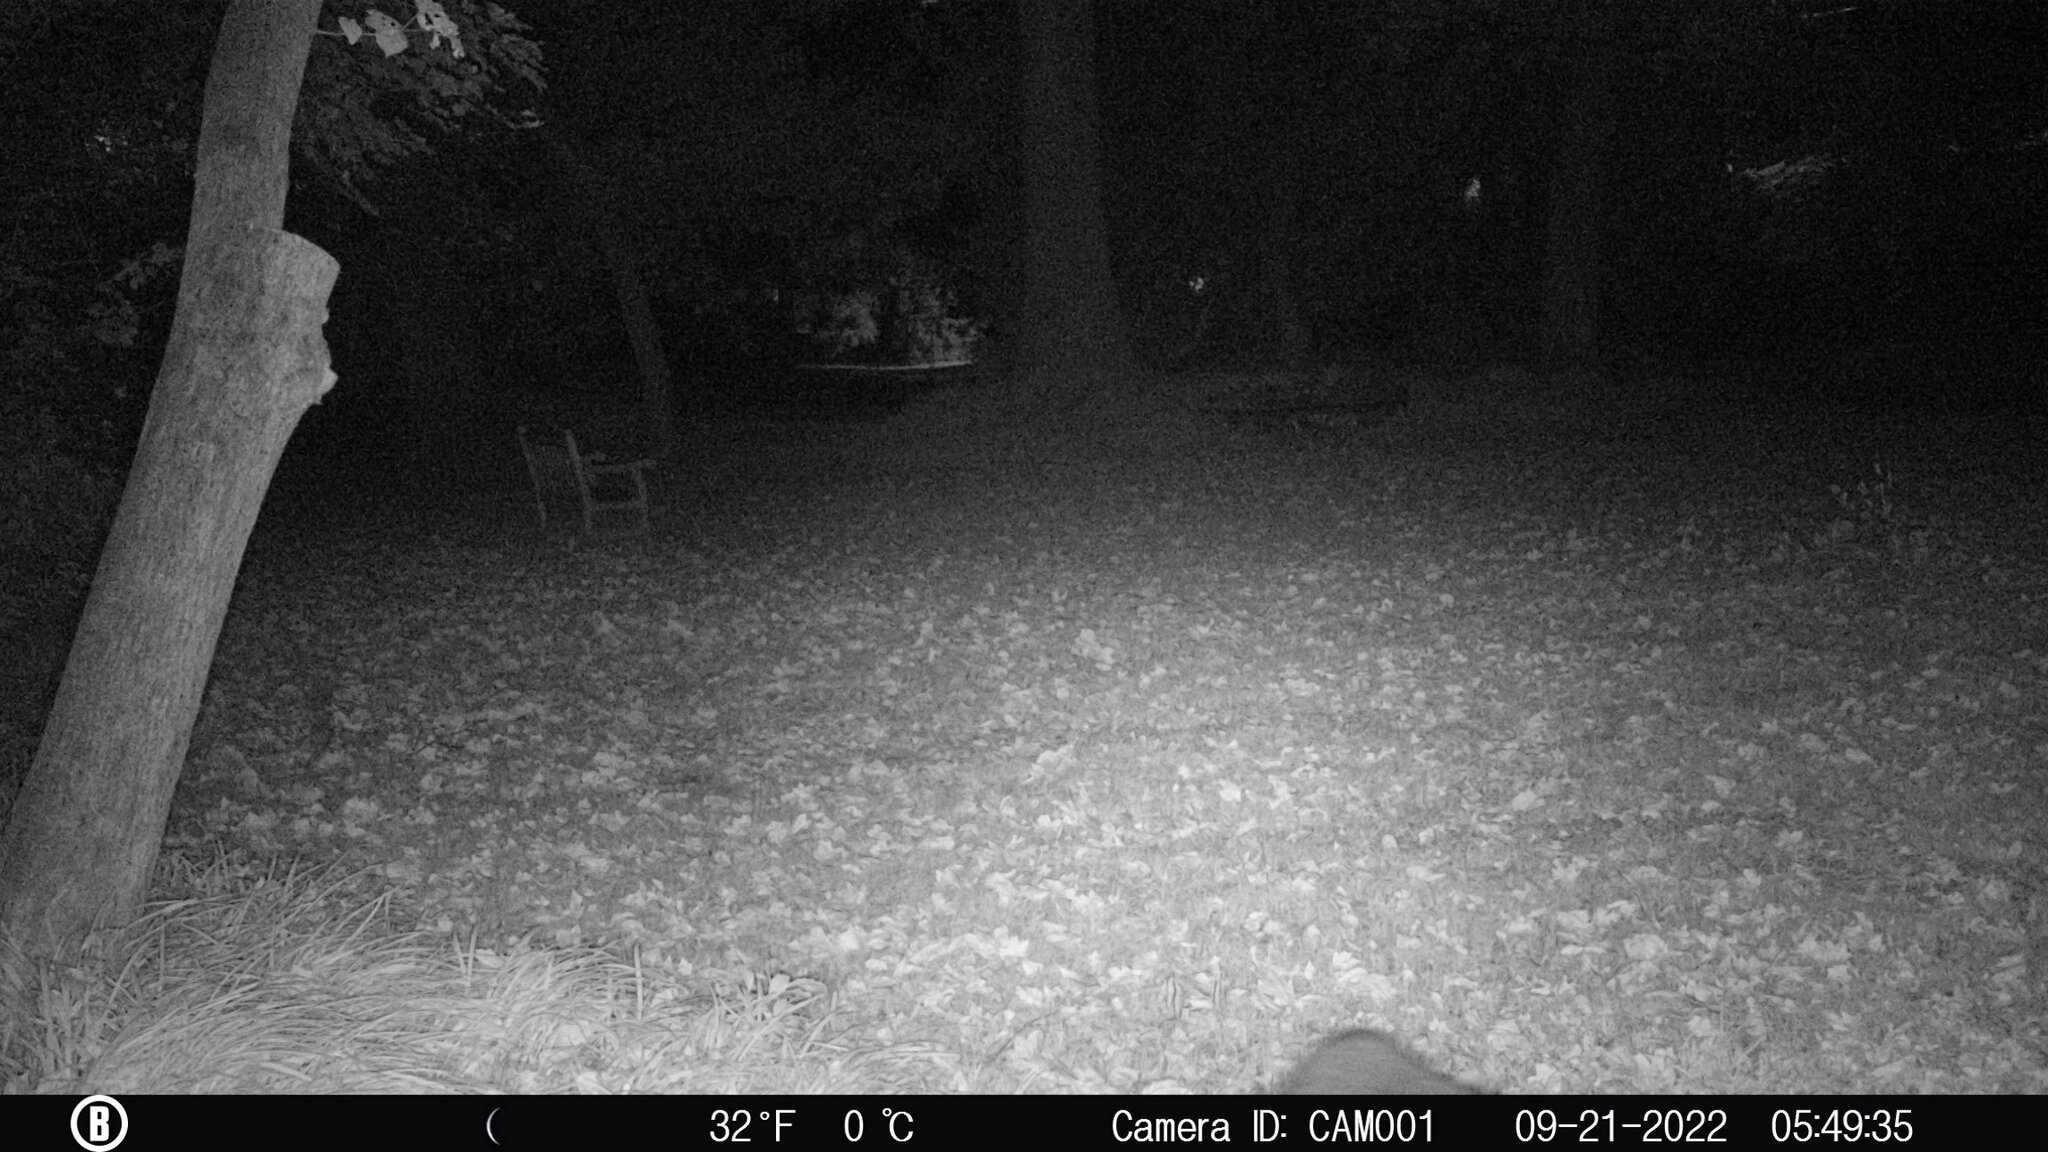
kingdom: Animalia
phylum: Chordata
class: Mammalia
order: Carnivora
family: Procyonidae
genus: Procyon
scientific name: Procyon lotor
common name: Raccoon
